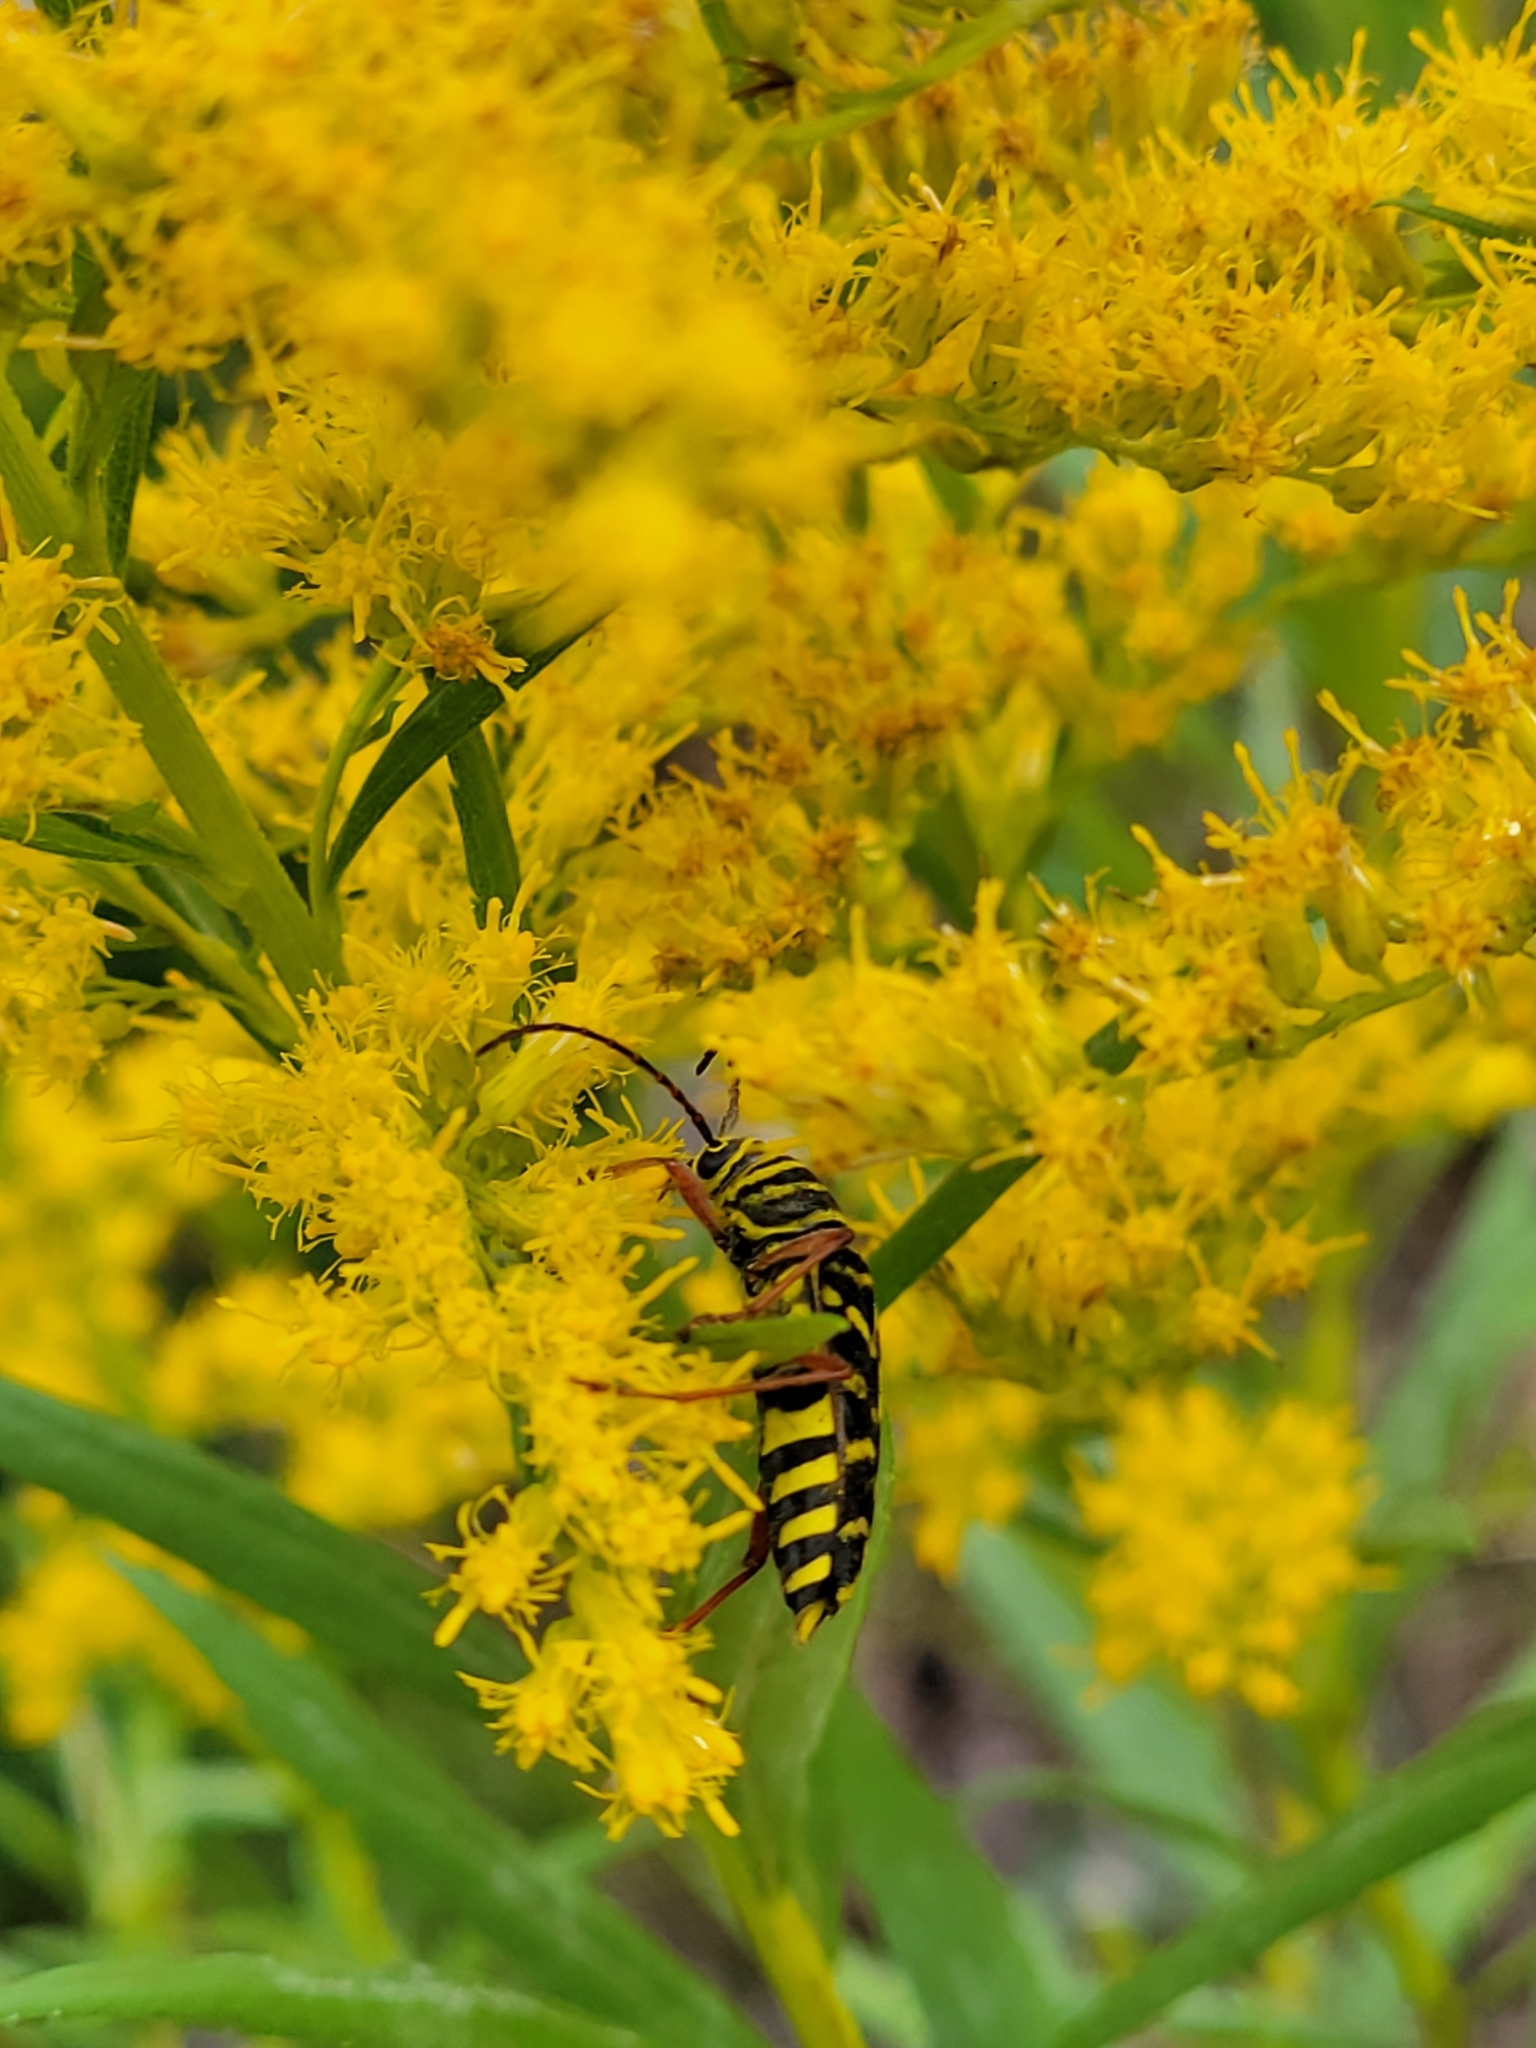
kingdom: Animalia
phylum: Arthropoda
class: Insecta
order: Coleoptera
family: Cerambycidae
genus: Megacyllene
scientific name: Megacyllene robiniae
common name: Locust borer
